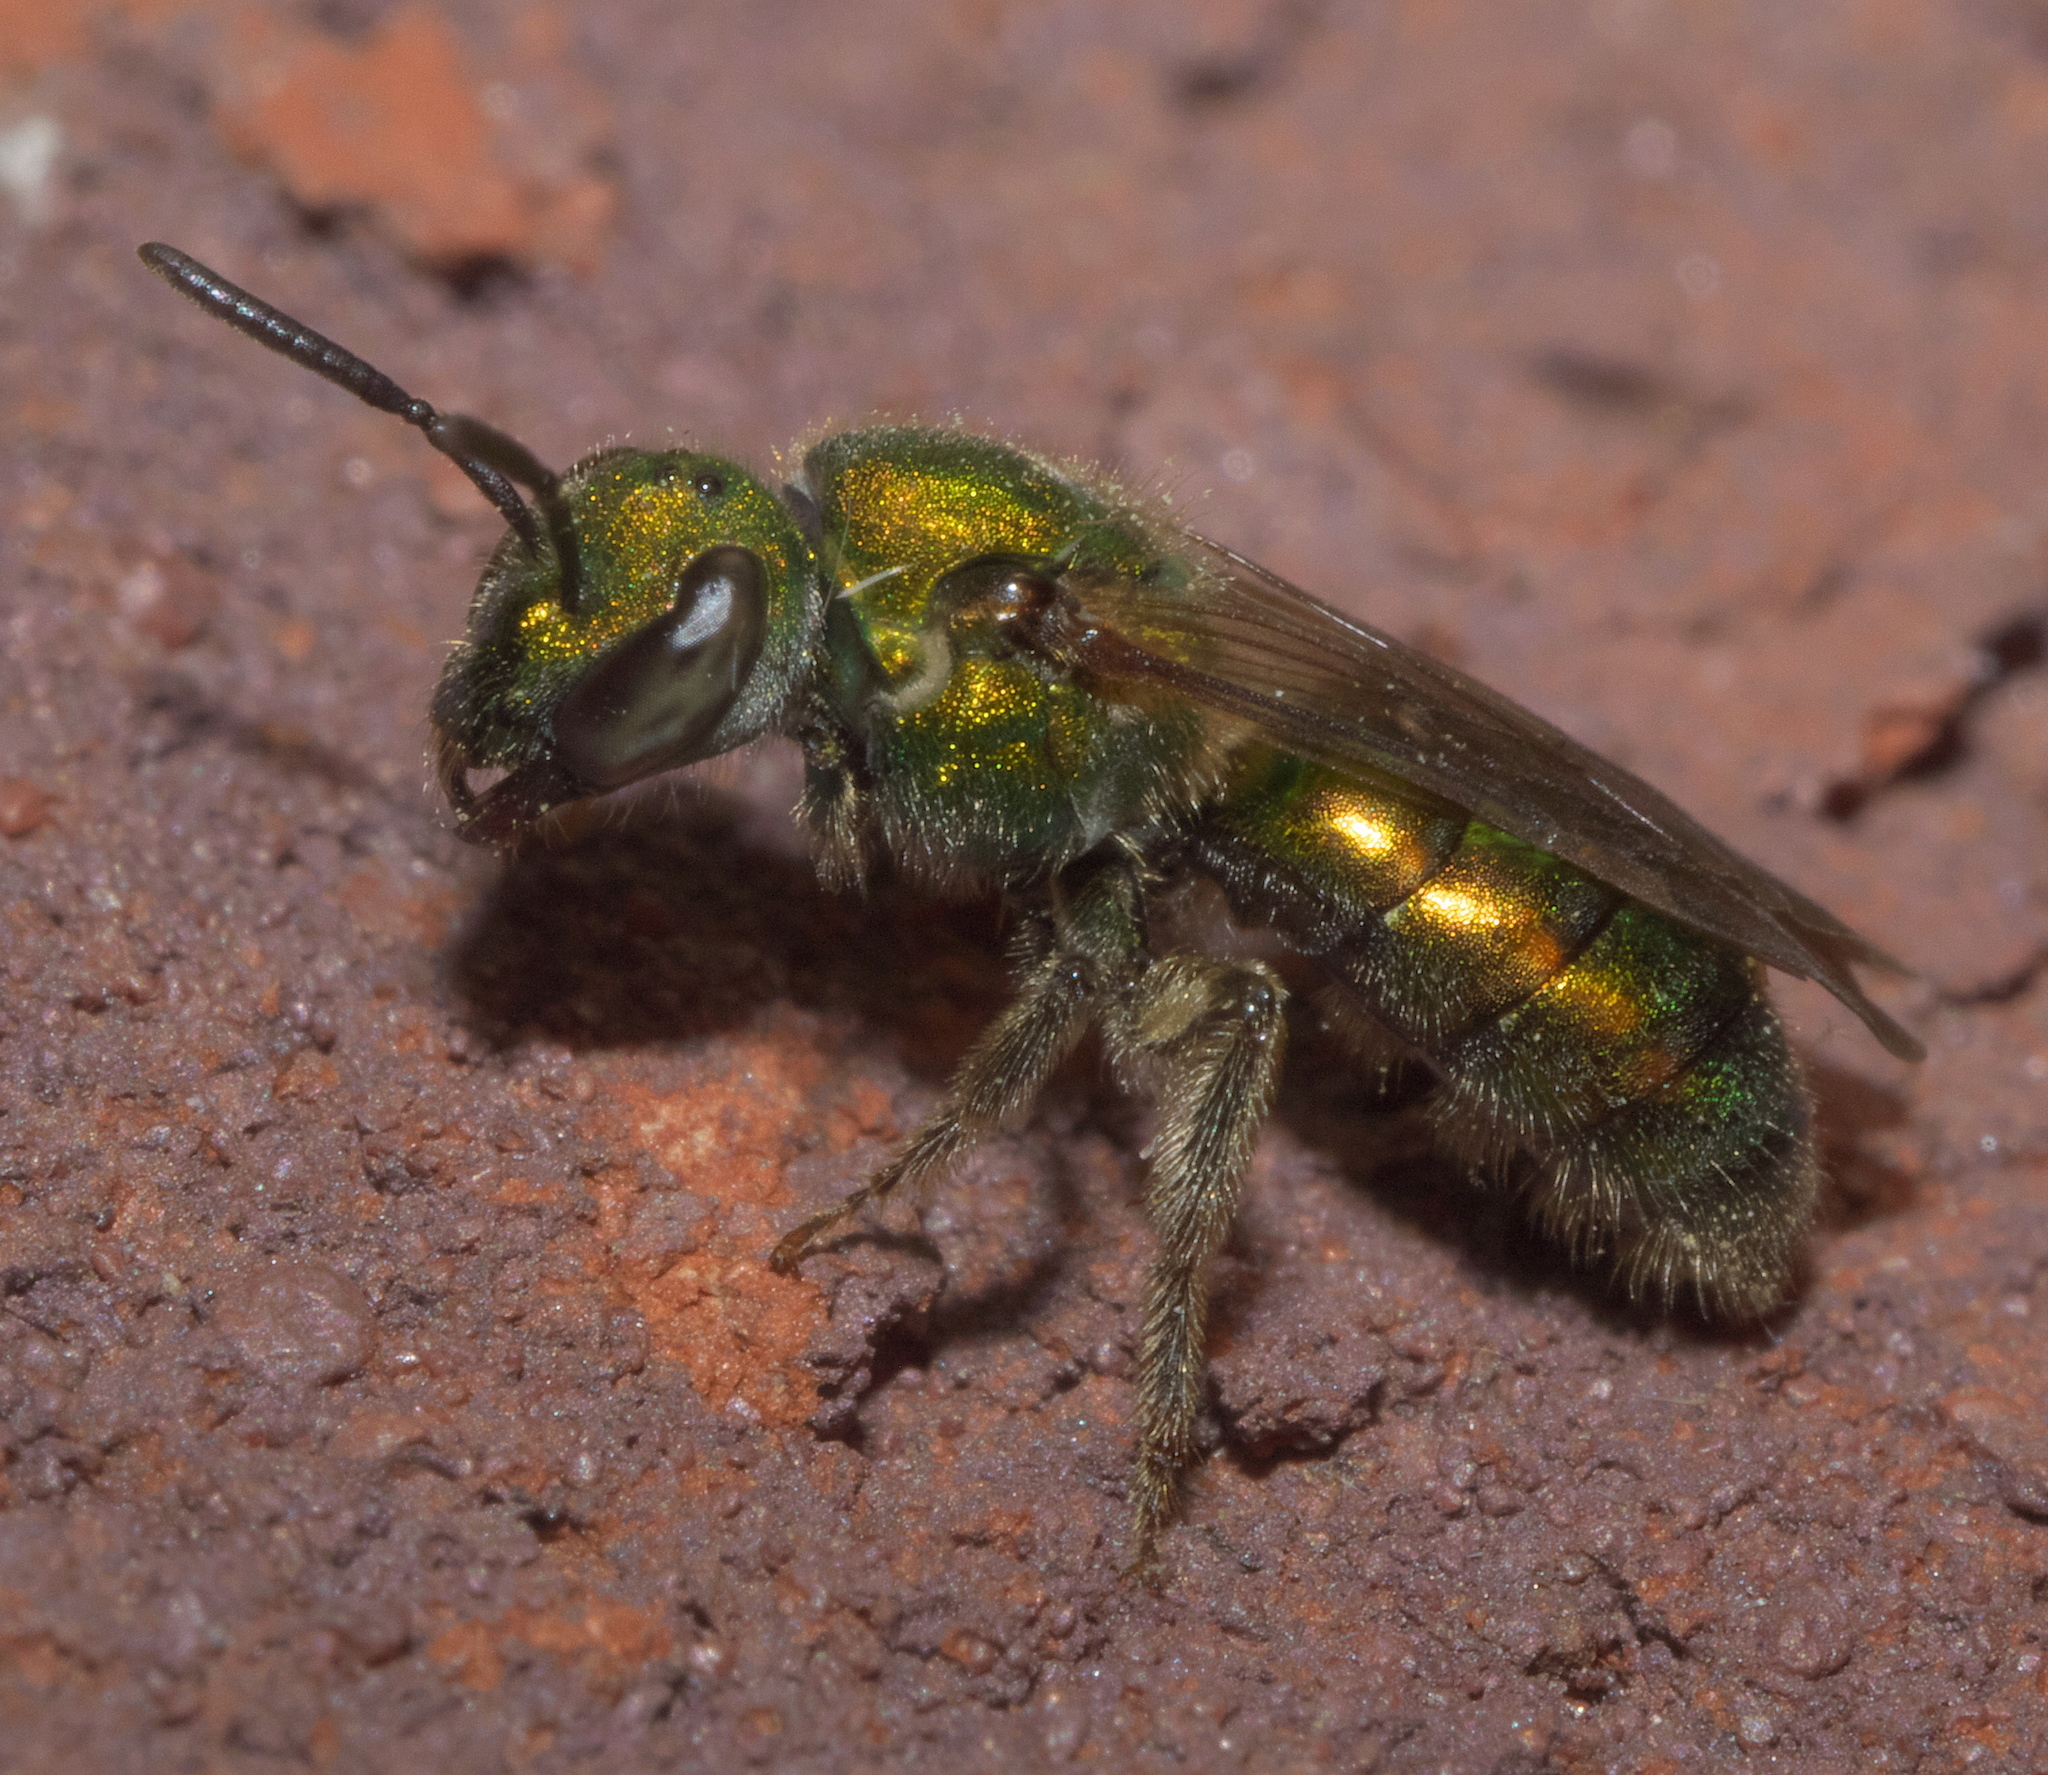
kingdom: Animalia
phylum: Arthropoda
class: Insecta
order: Hymenoptera
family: Halictidae
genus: Augochlora
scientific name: Augochlora pura
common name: Pure green sweat bee
